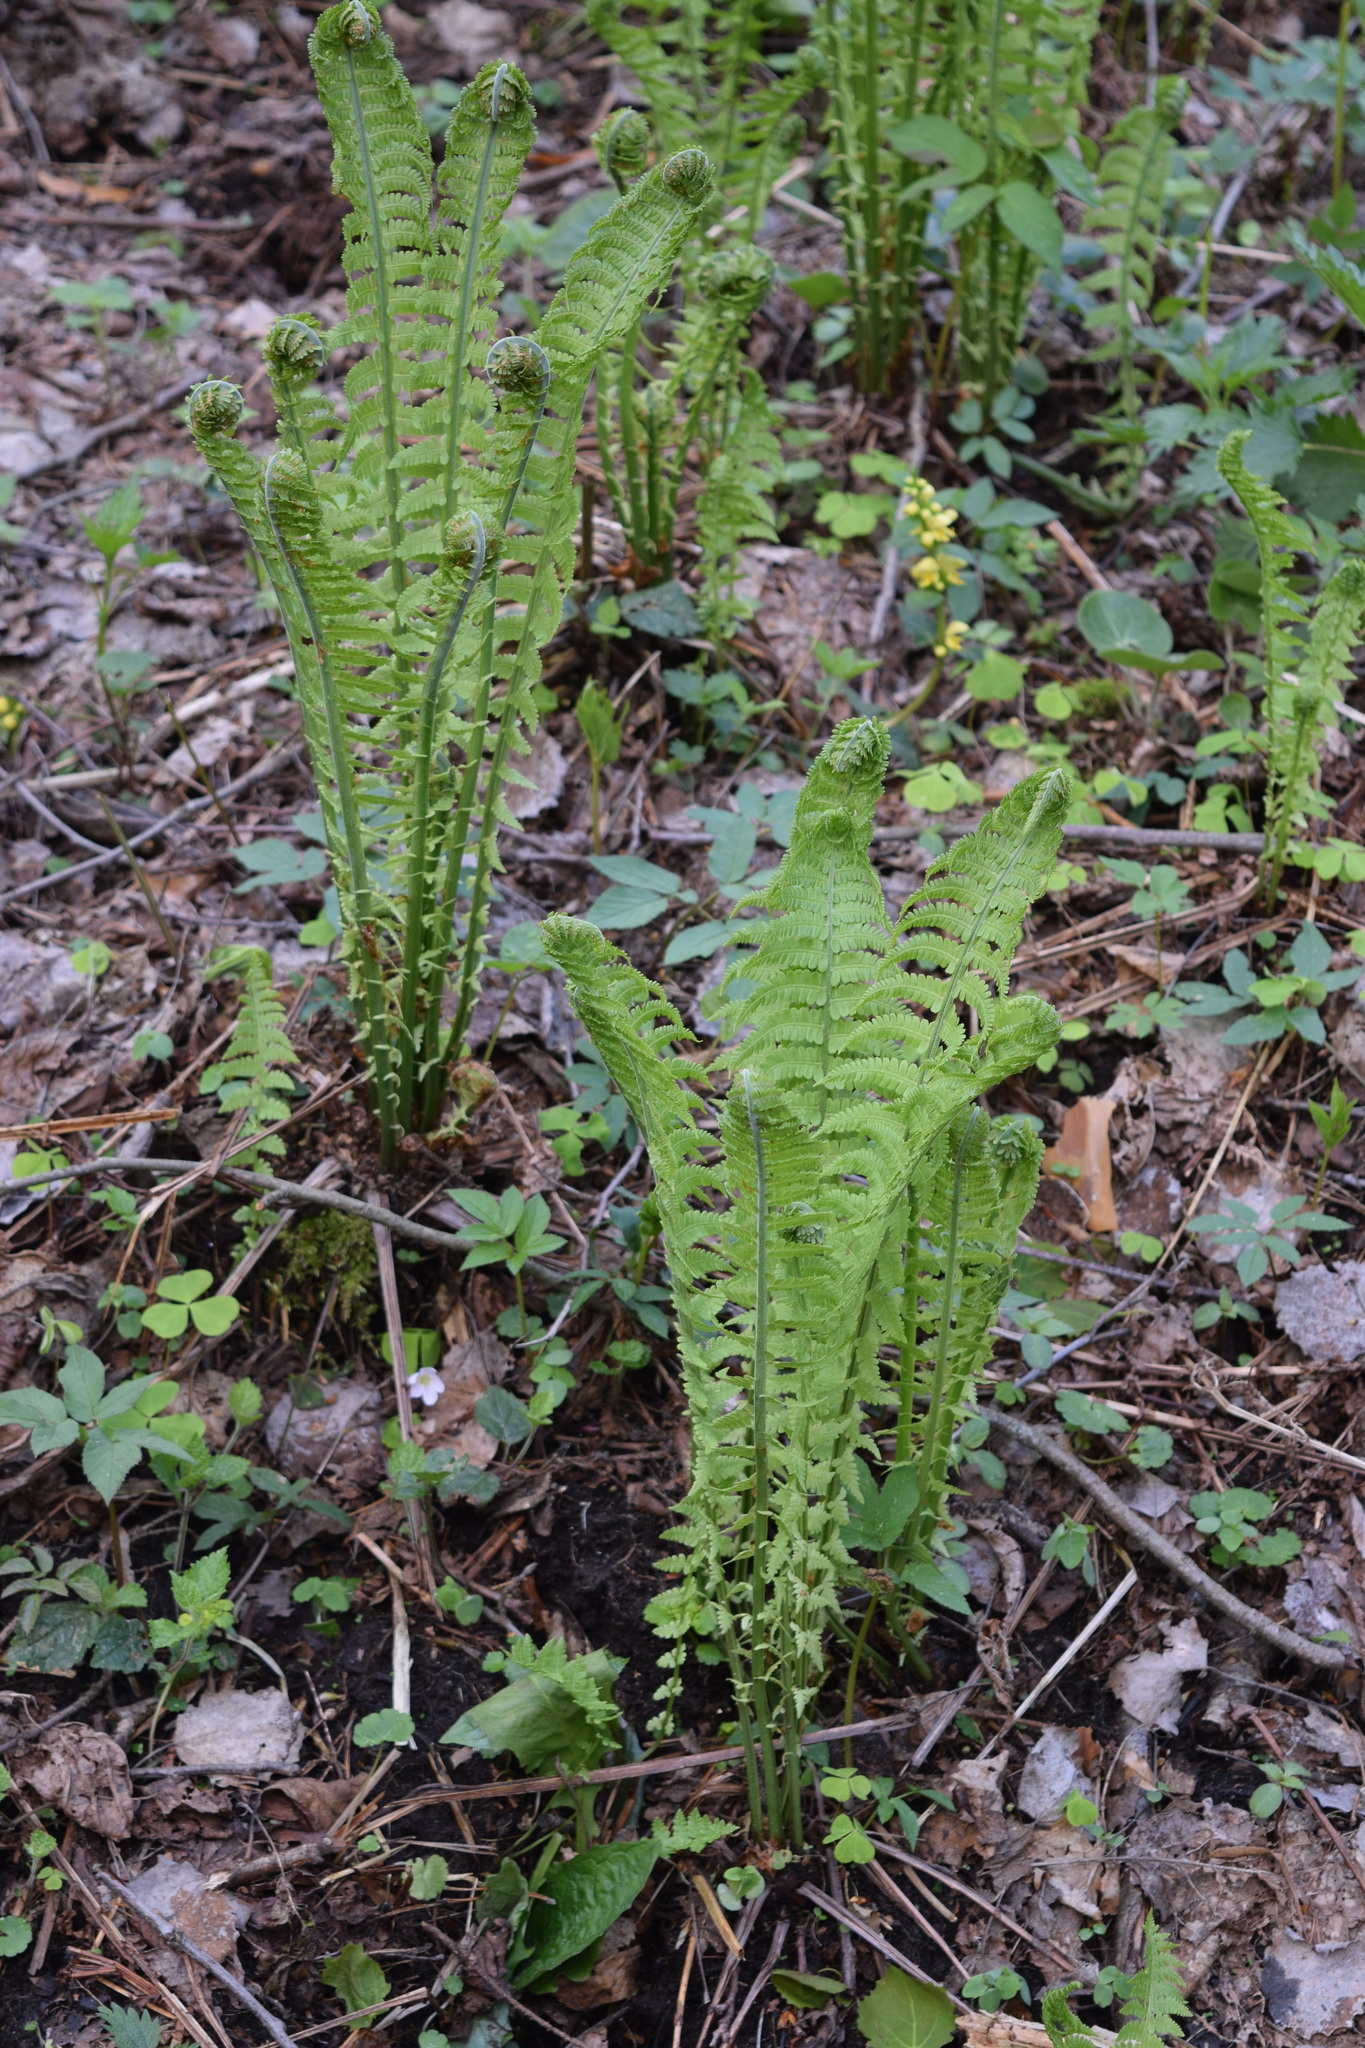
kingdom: Plantae
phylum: Tracheophyta
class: Polypodiopsida
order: Polypodiales
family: Onocleaceae
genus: Matteuccia
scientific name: Matteuccia struthiopteris
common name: Ostrich fern
